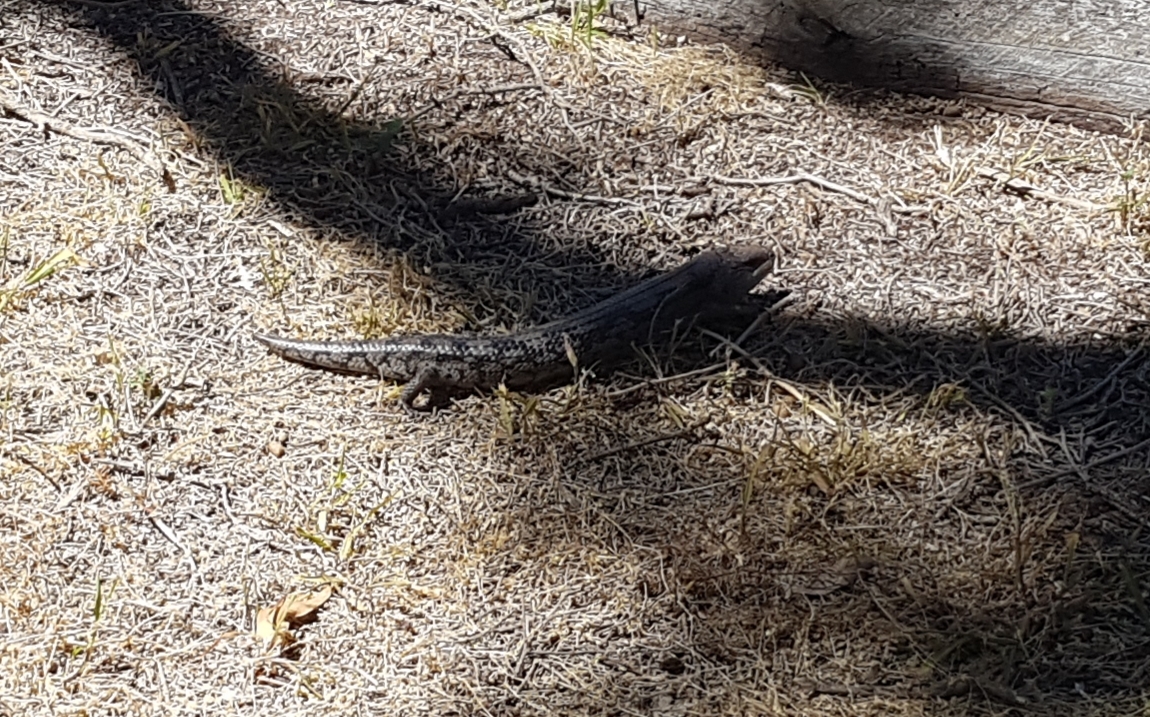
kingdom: Animalia
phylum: Chordata
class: Squamata
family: Scincidae
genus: Tiliqua
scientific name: Tiliqua nigrolutea
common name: Blotched blue-tongued lizard
